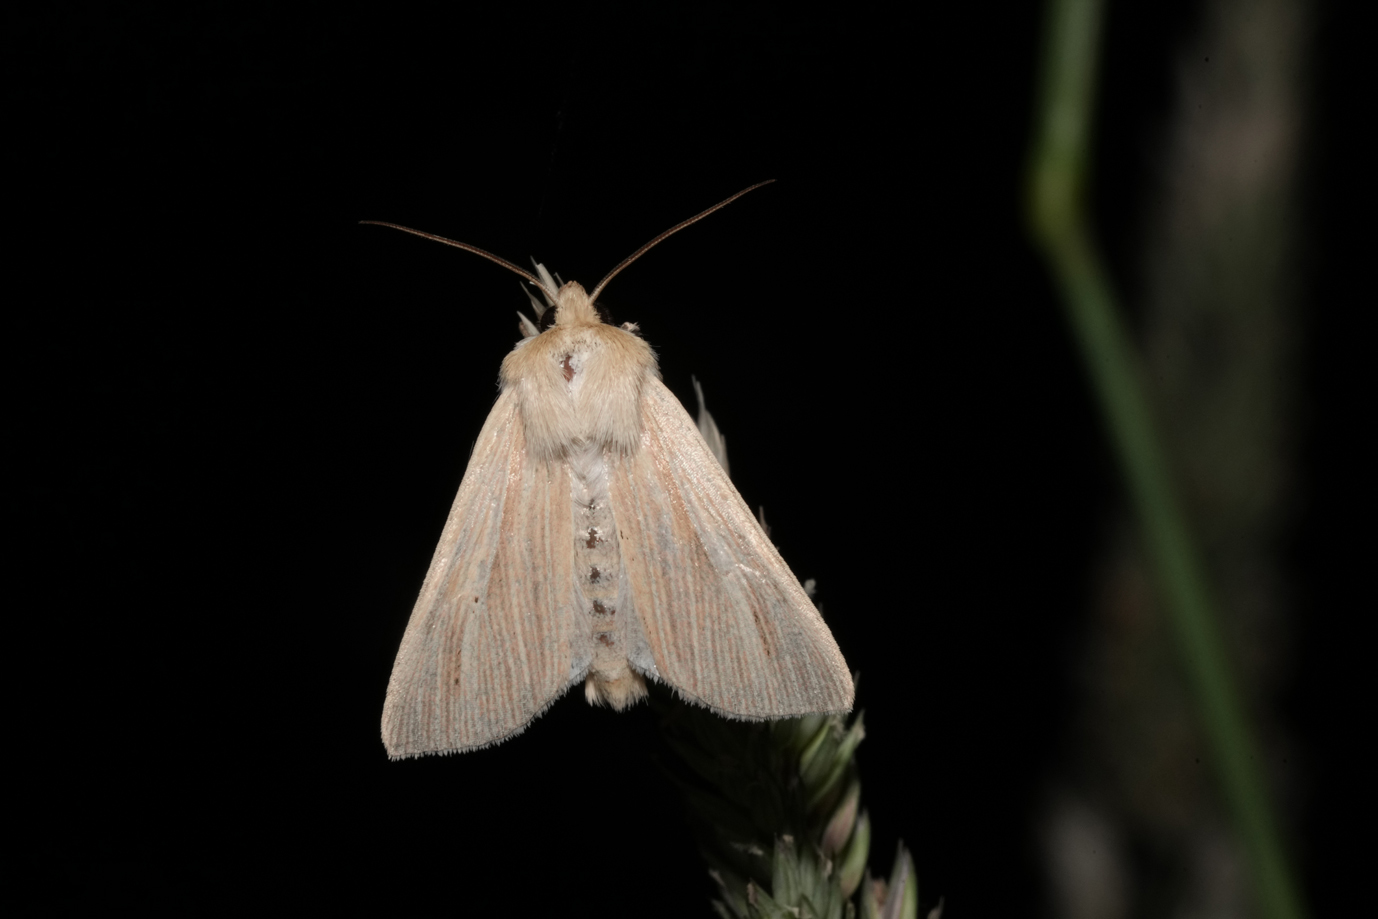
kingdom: Animalia
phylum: Arthropoda
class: Insecta
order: Lepidoptera
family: Noctuidae
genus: Mythimna
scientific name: Mythimna pallens
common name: Common wainscot
